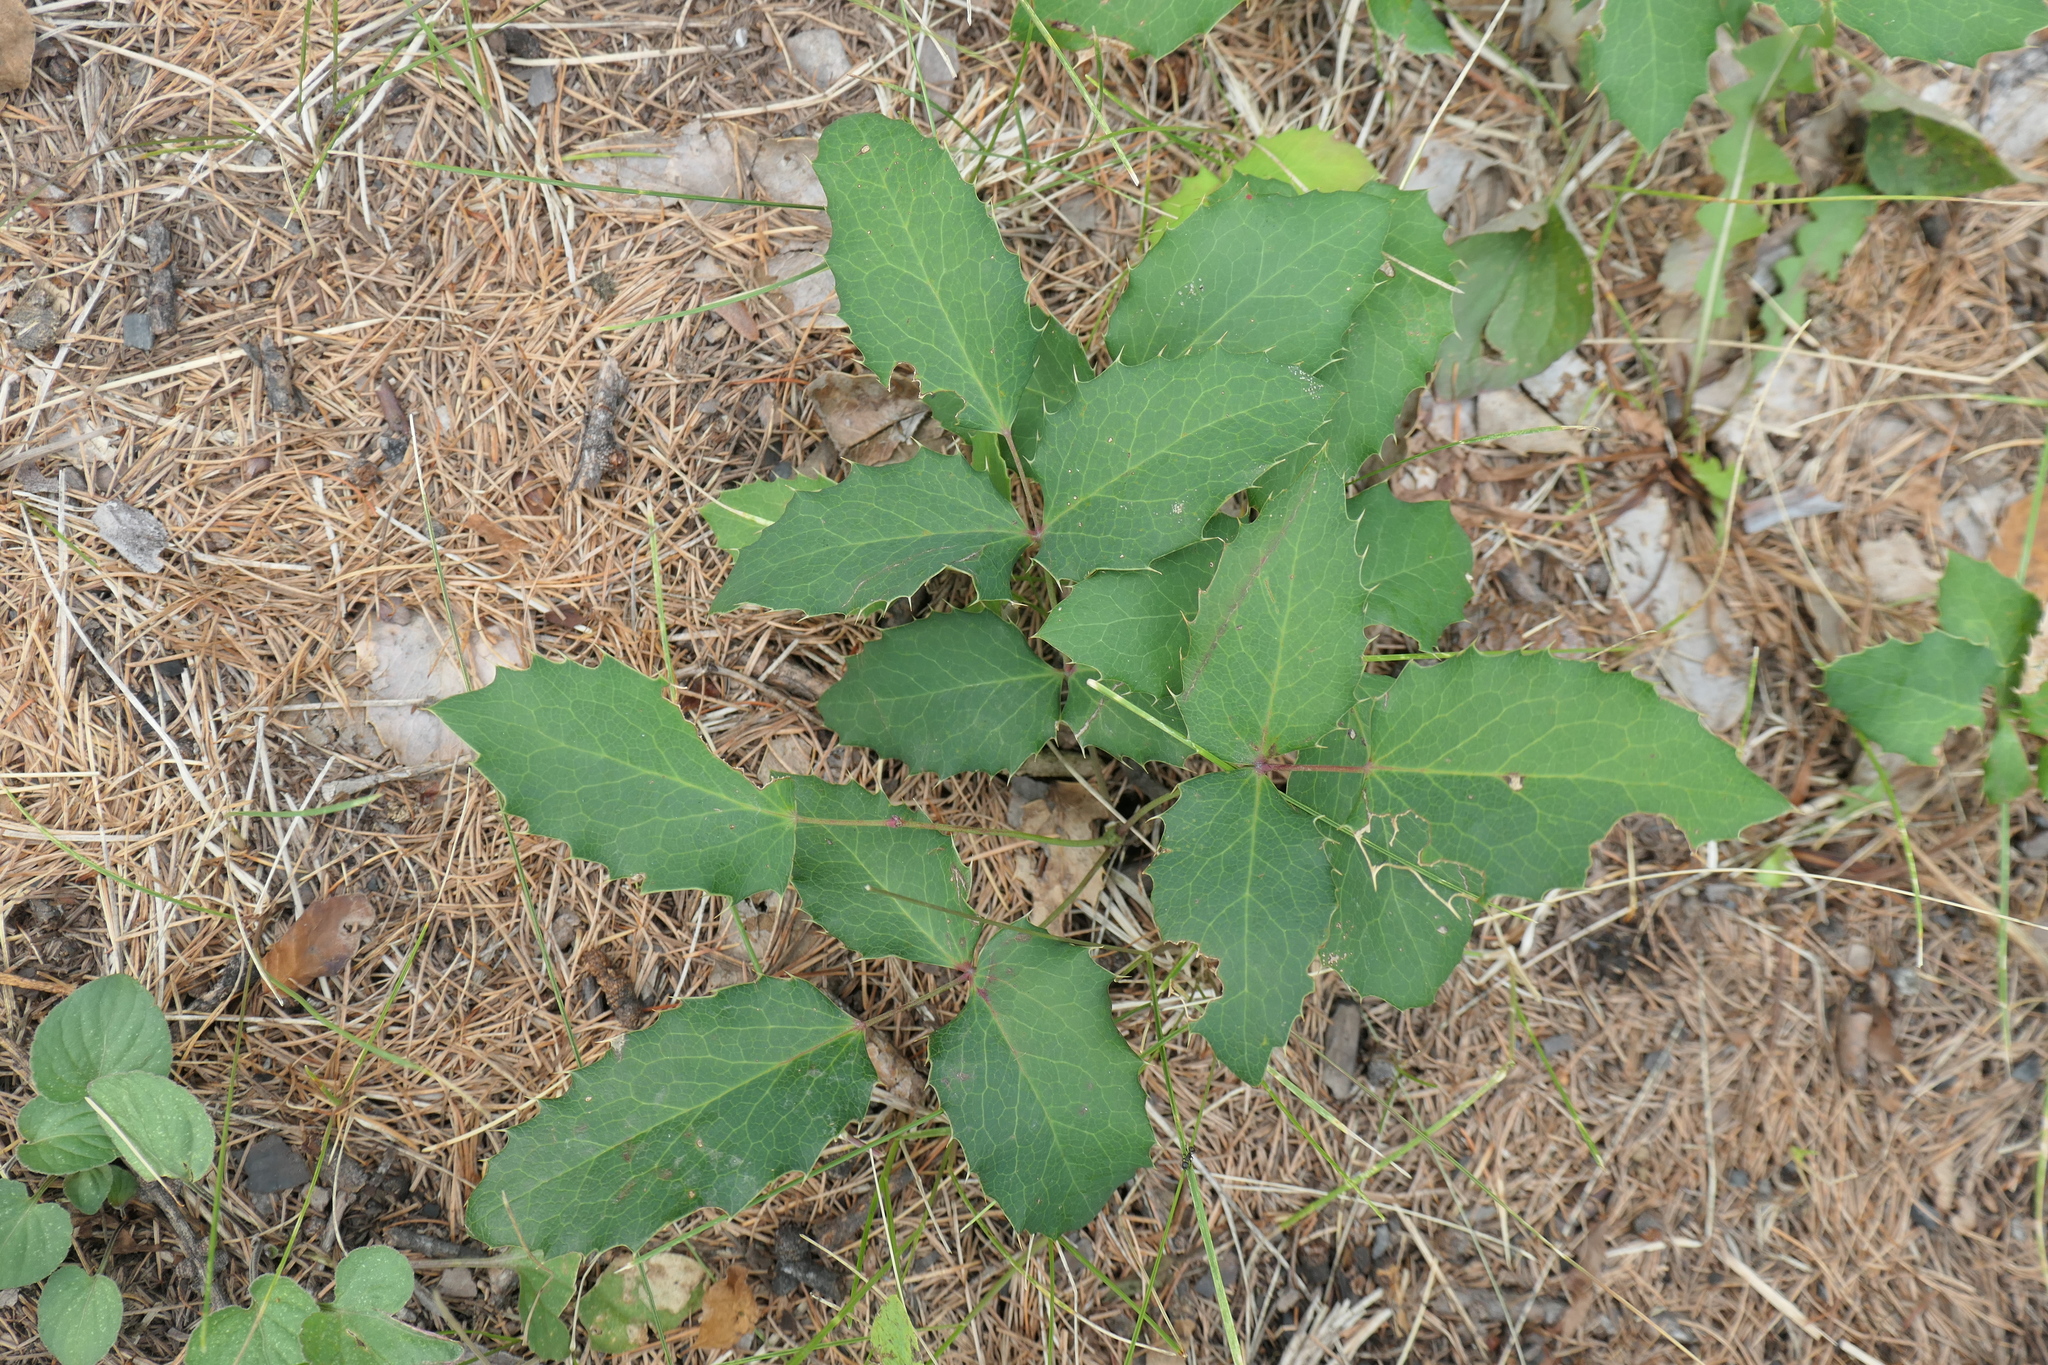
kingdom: Plantae
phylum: Tracheophyta
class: Magnoliopsida
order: Ranunculales
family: Berberidaceae
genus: Mahonia
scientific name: Mahonia repens
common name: Creeping oregon-grape
